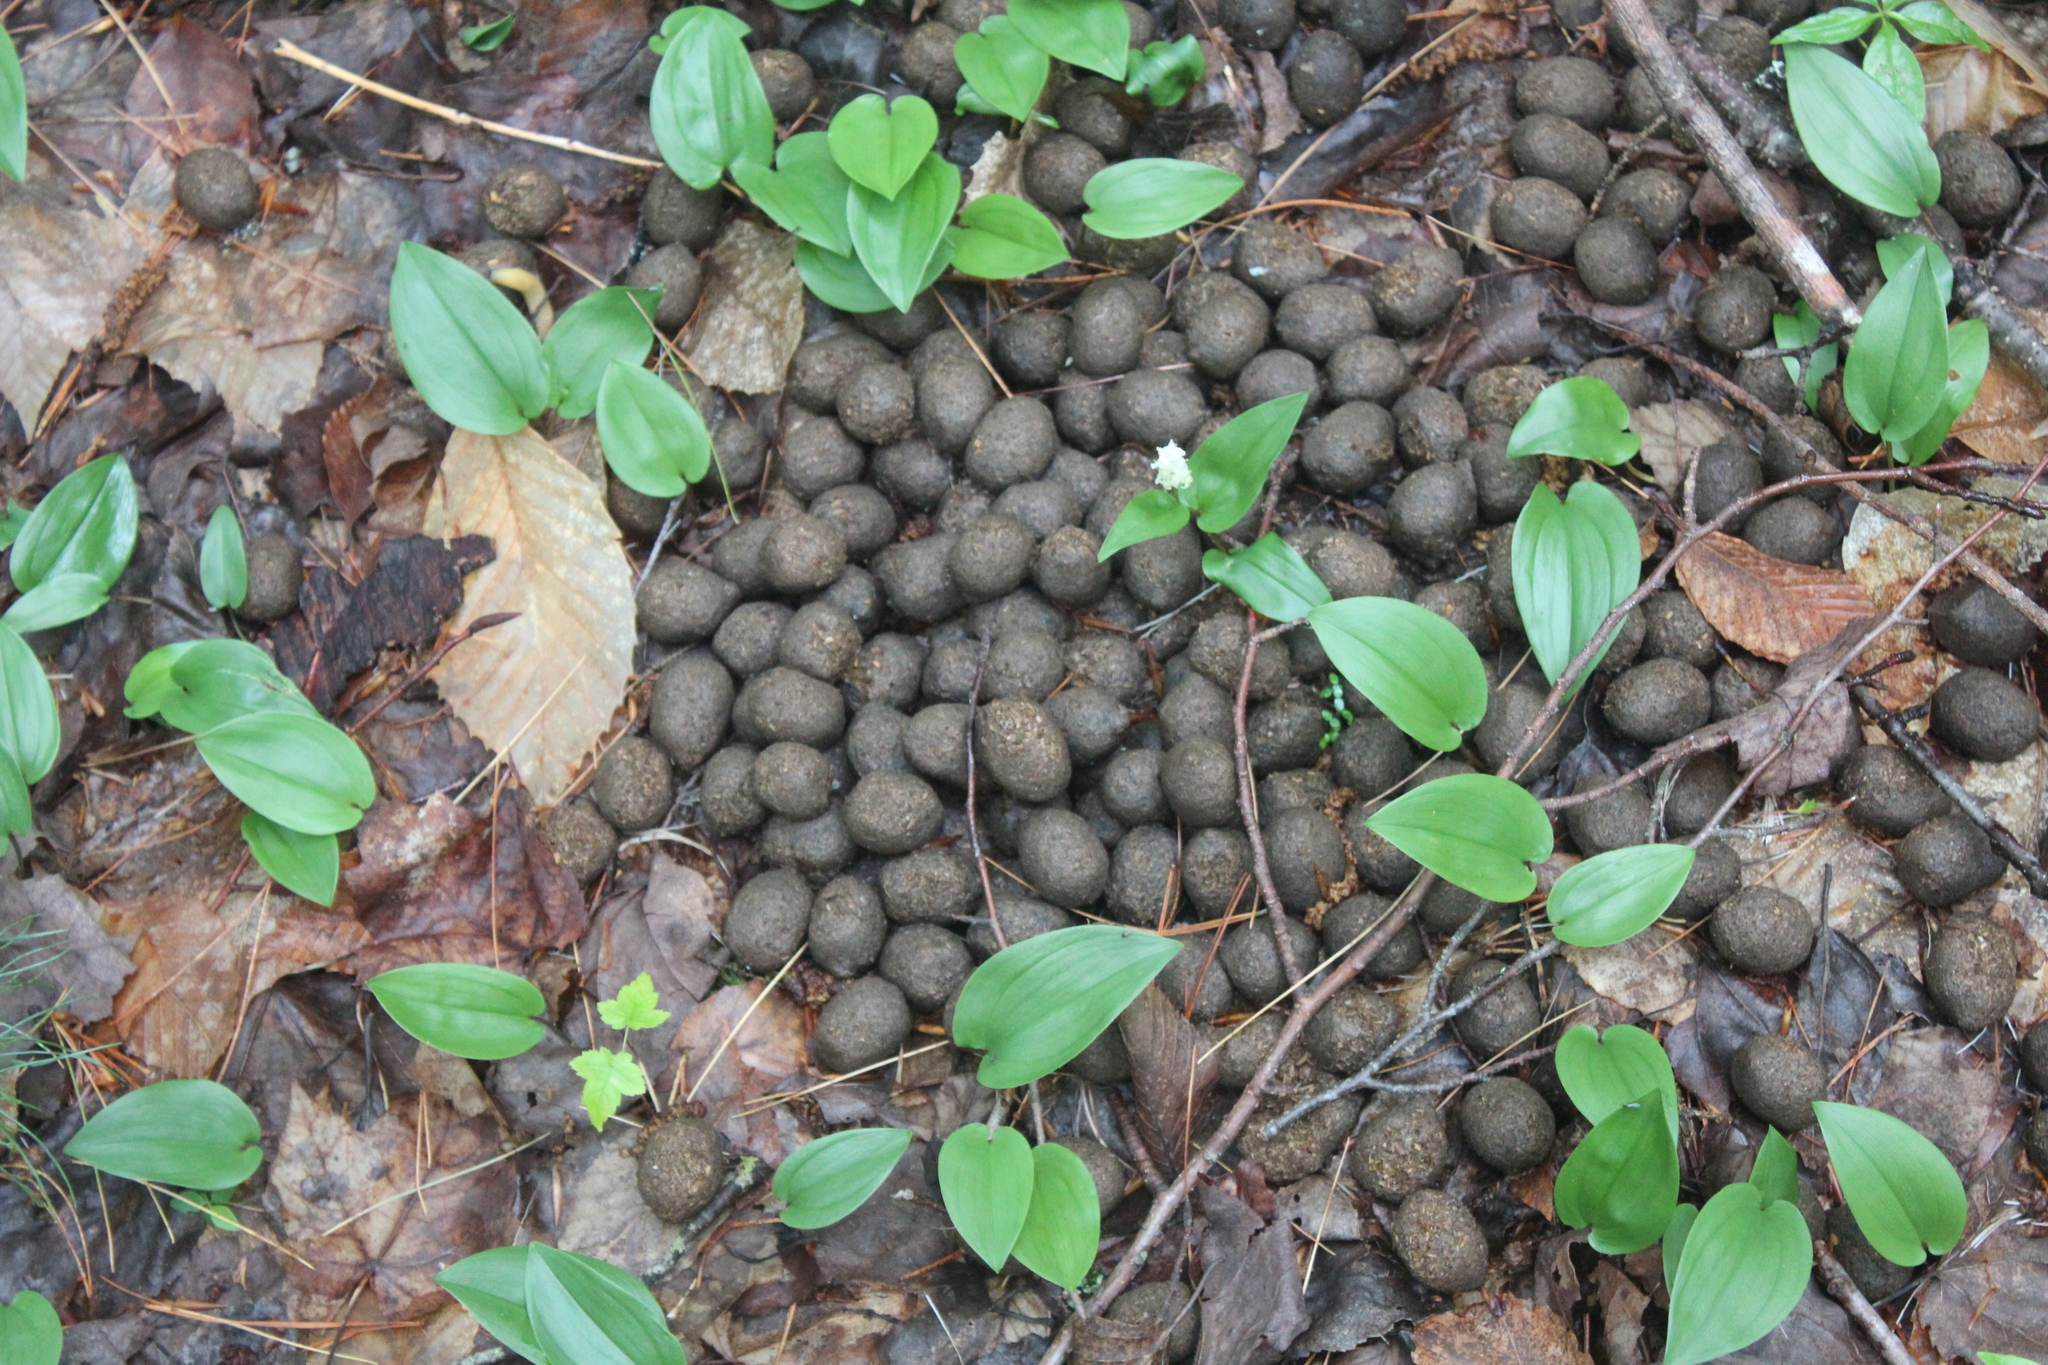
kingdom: Animalia
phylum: Chordata
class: Mammalia
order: Artiodactyla
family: Cervidae
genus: Alces
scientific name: Alces alces
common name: Moose
